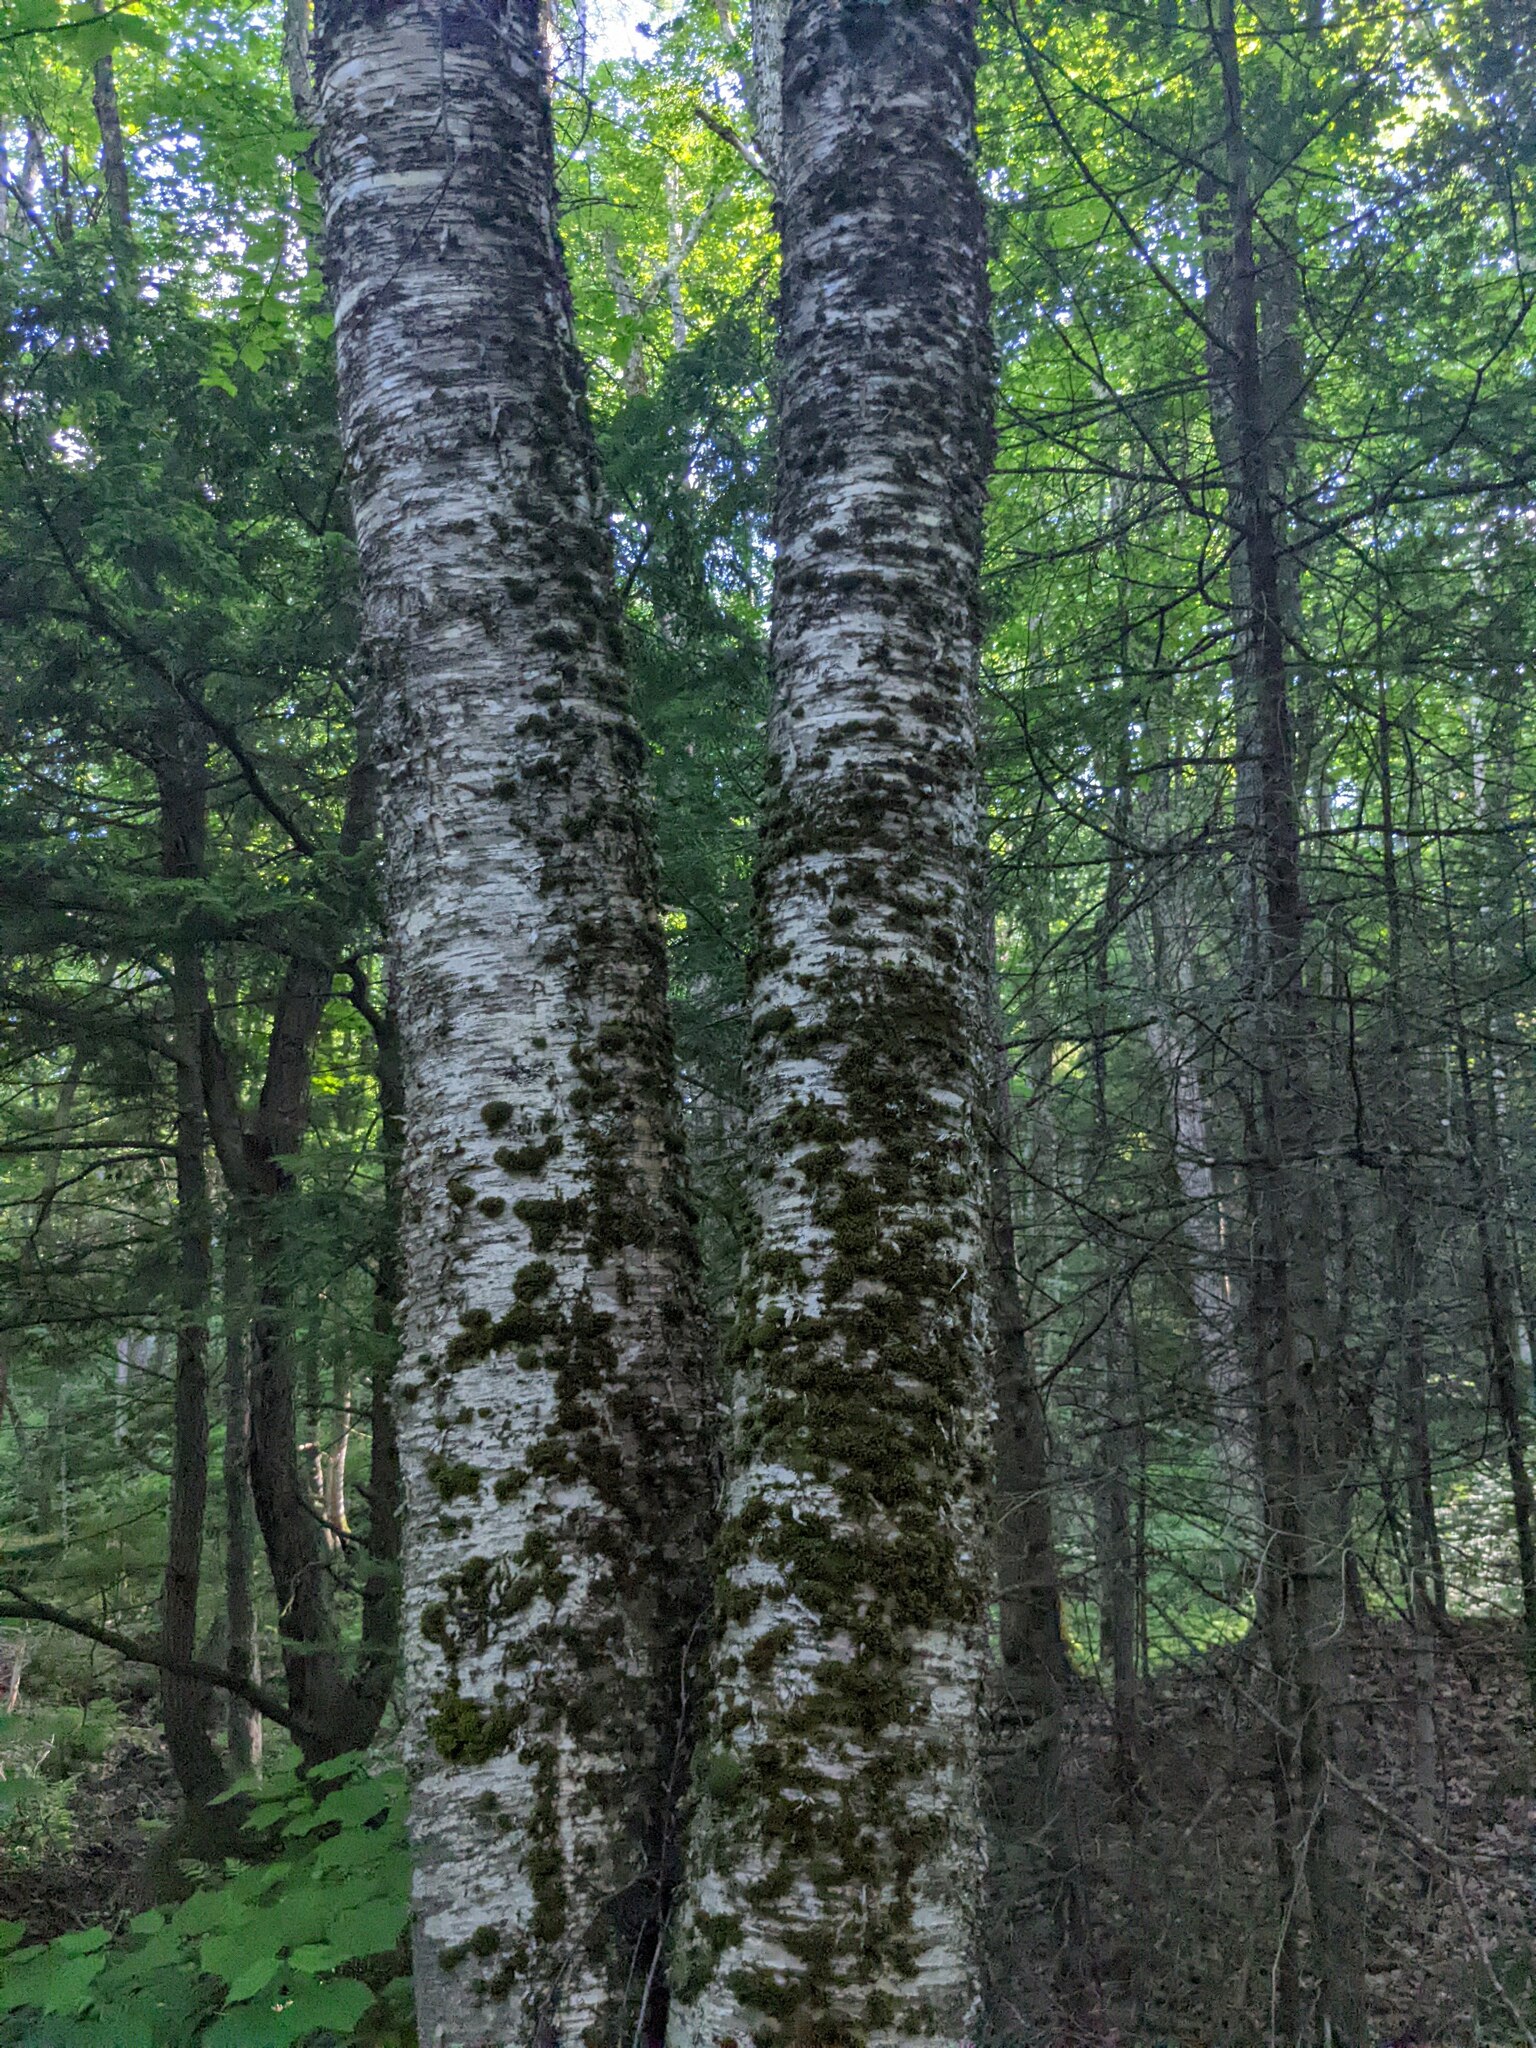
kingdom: Plantae
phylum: Tracheophyta
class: Magnoliopsida
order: Fagales
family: Betulaceae
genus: Betula
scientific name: Betula alleghaniensis
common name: Yellow birch
